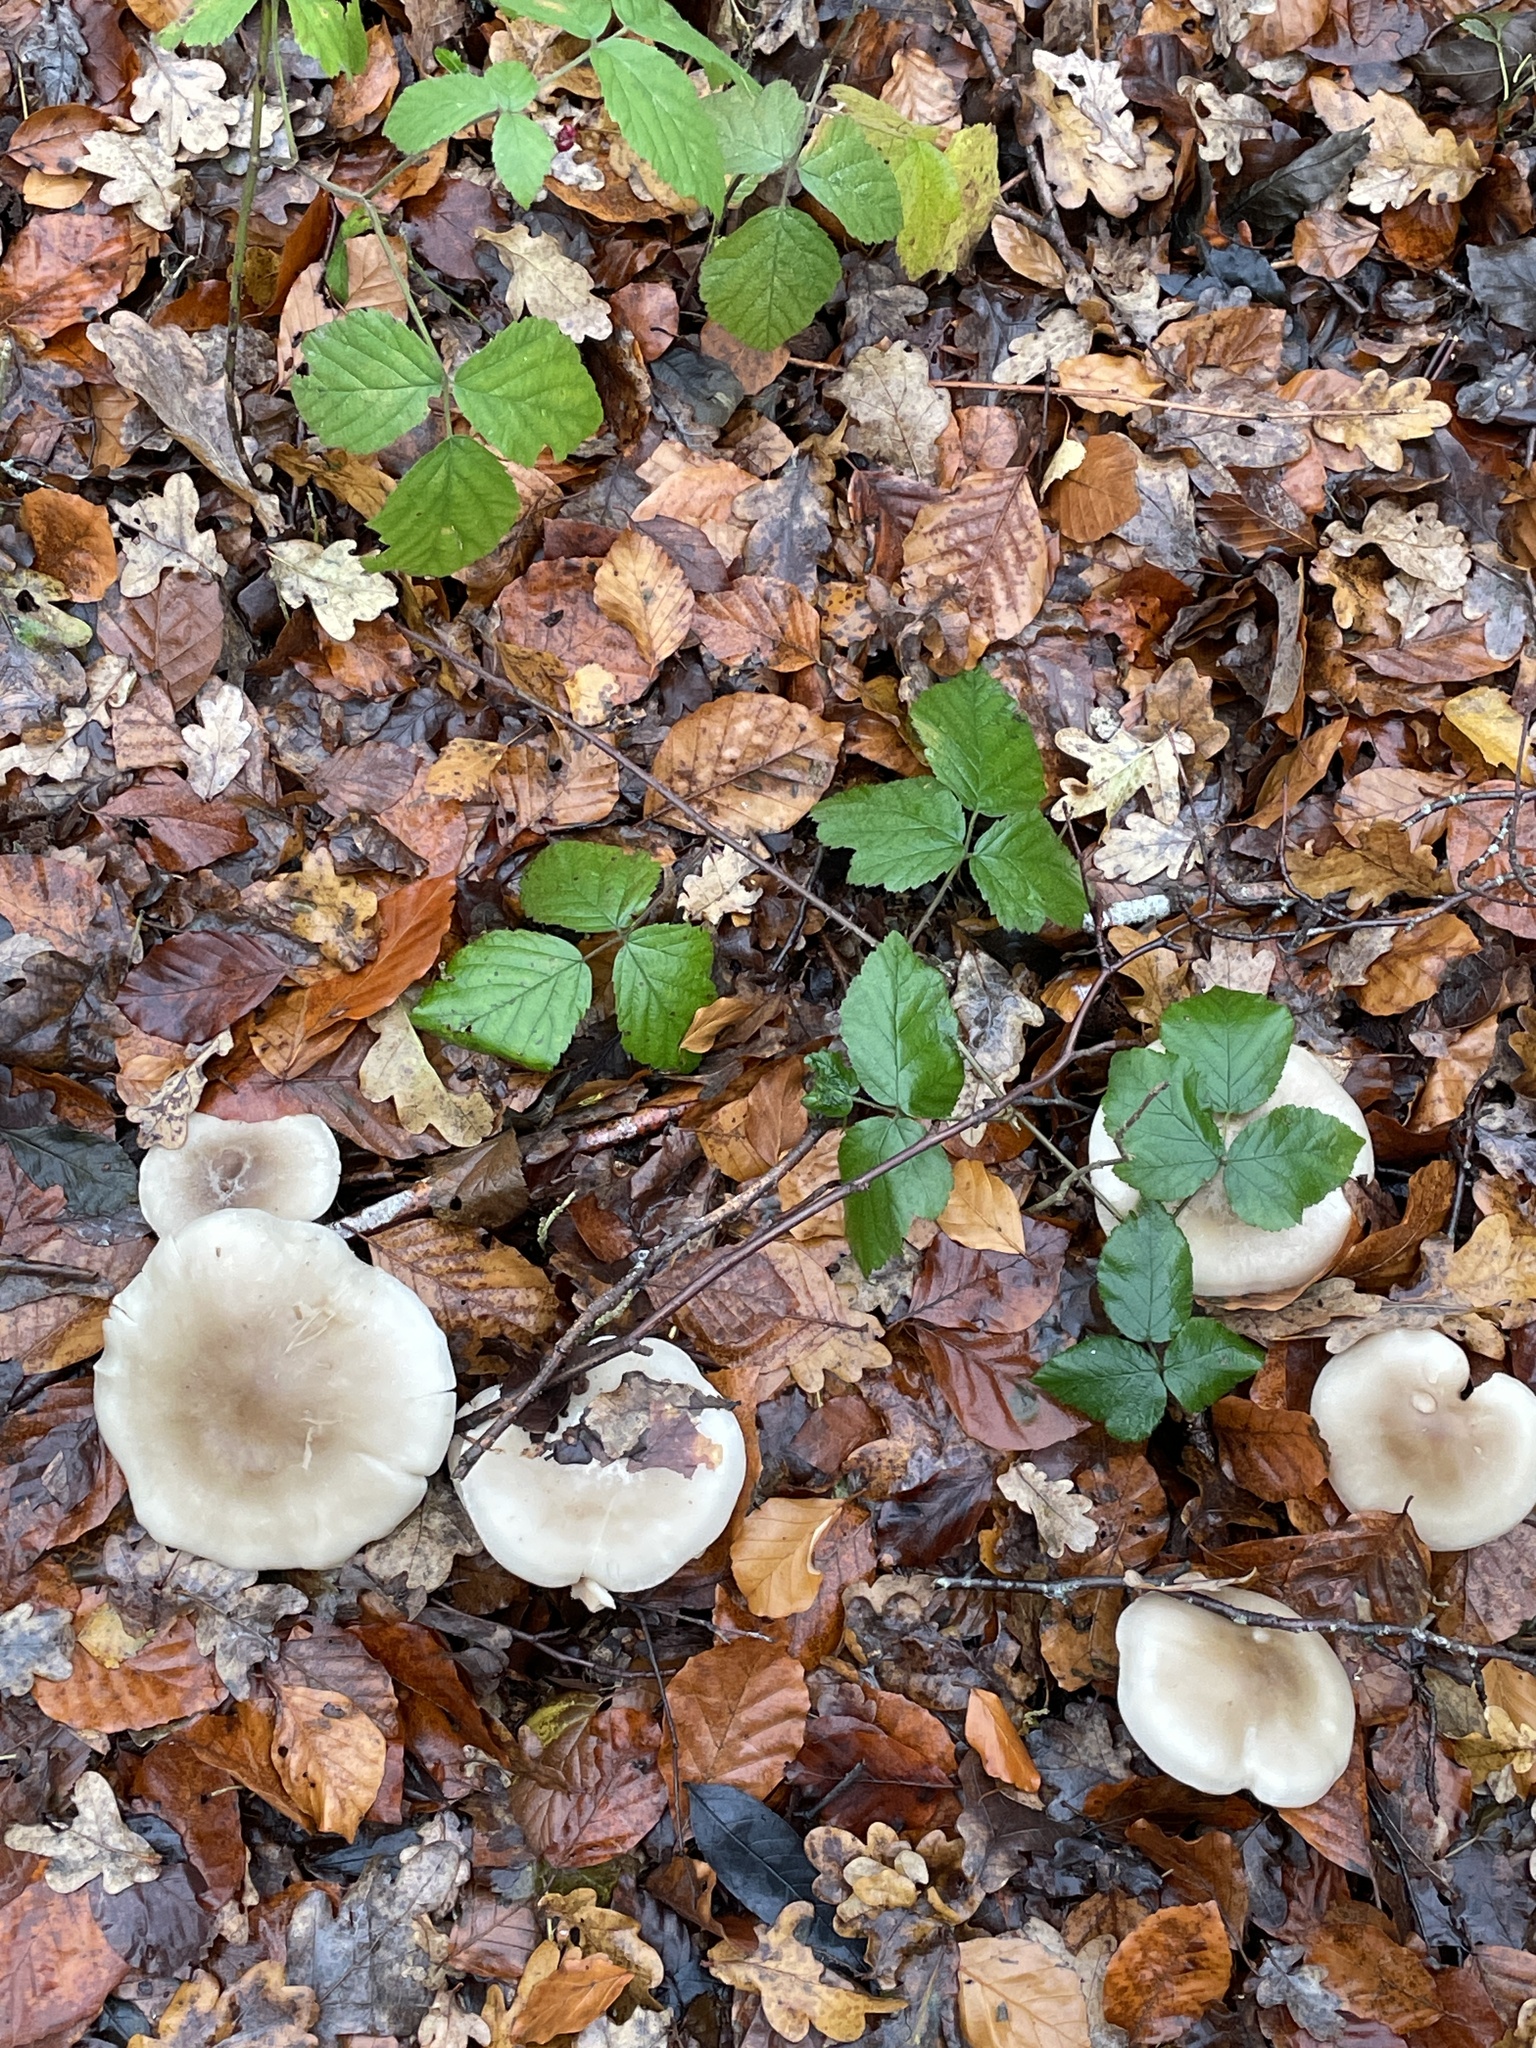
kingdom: Fungi
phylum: Basidiomycota
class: Agaricomycetes
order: Agaricales
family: Tricholomataceae
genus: Clitocybe
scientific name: Clitocybe nebularis
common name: Clouded agaric
